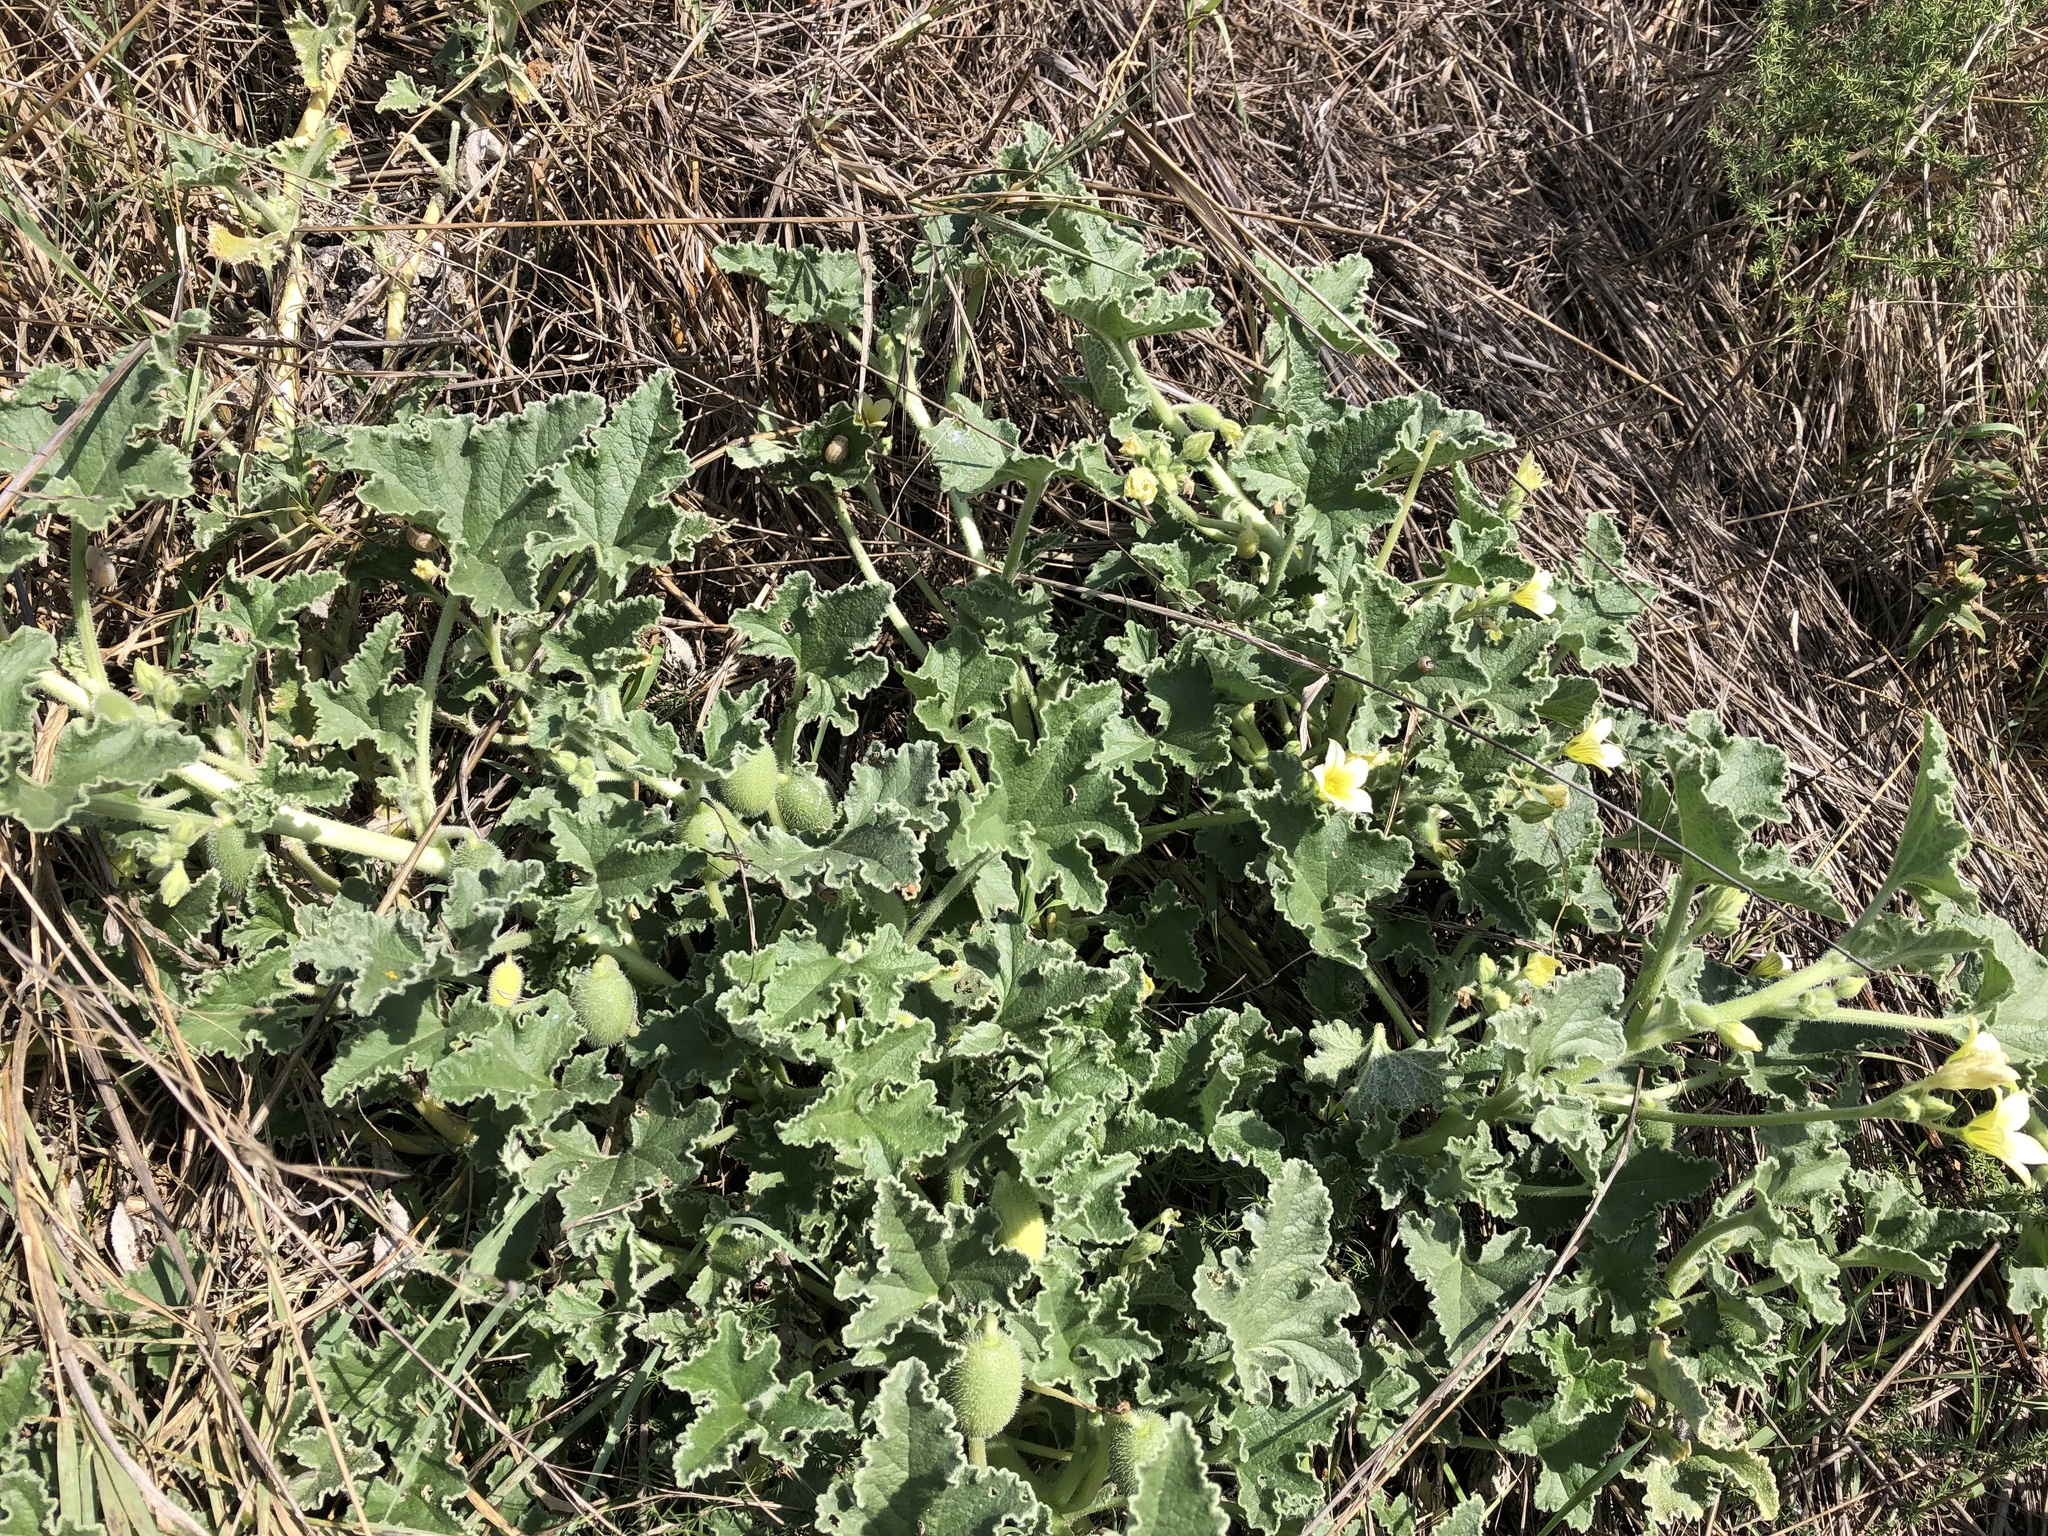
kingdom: Plantae
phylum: Tracheophyta
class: Magnoliopsida
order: Cucurbitales
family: Cucurbitaceae
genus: Ecballium
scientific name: Ecballium elaterium
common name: Squirting cucumber
